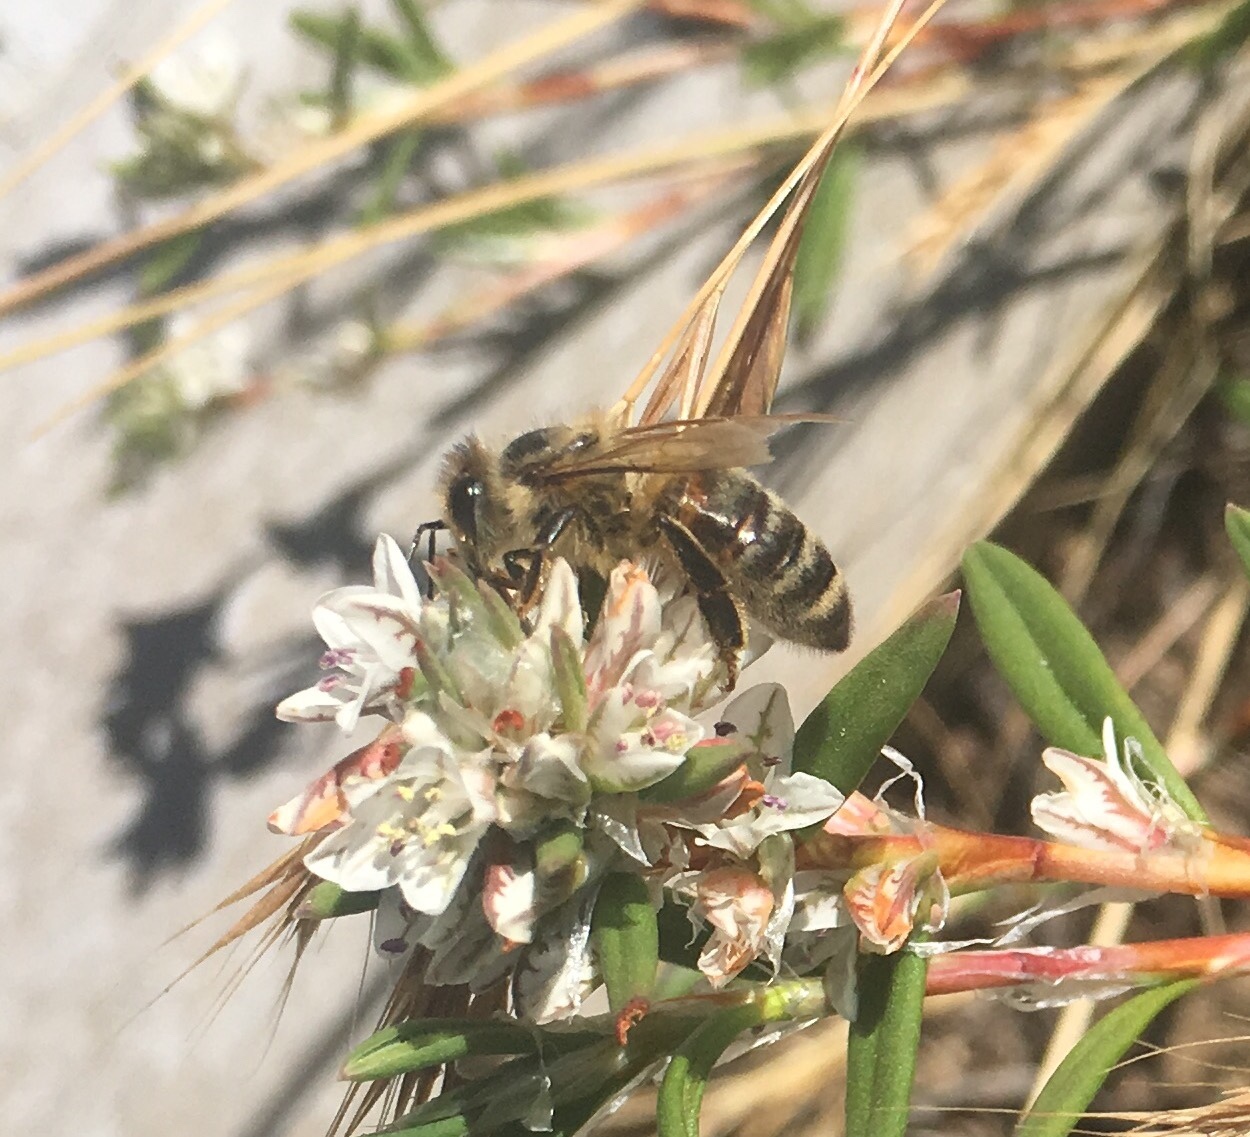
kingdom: Animalia
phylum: Arthropoda
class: Insecta
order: Hymenoptera
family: Apidae
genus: Apis
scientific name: Apis mellifera
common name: Honey bee
